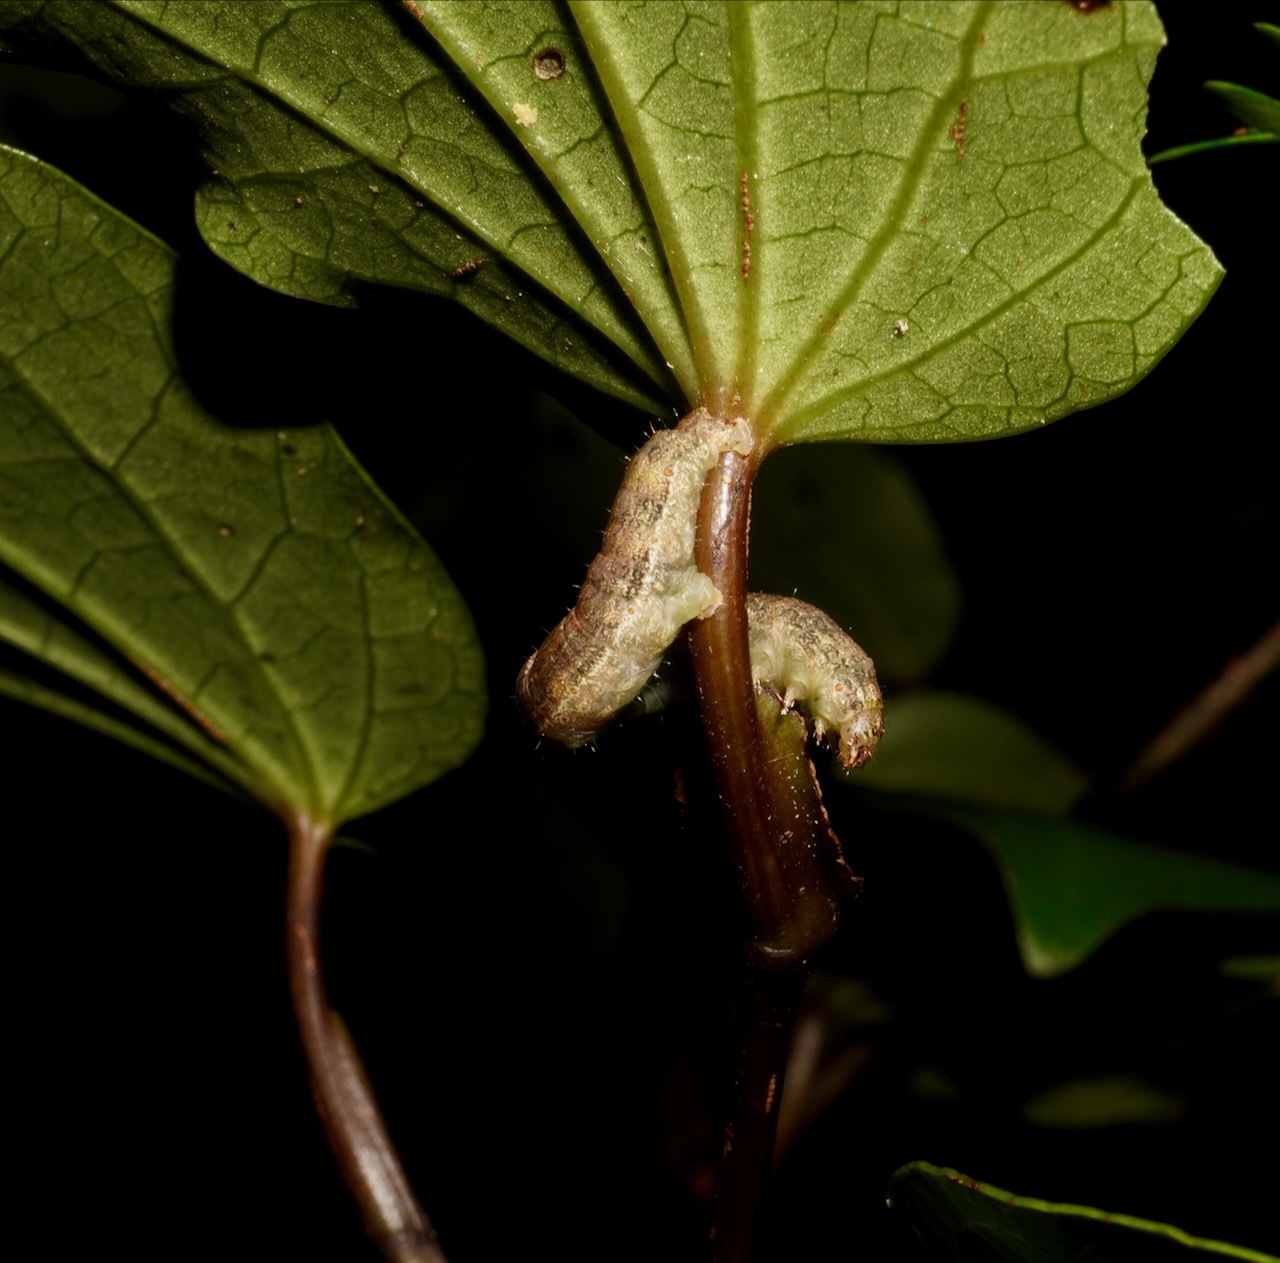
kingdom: Animalia
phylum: Arthropoda
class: Insecta
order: Lepidoptera
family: Geometridae
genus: Cleora
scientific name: Cleora scriptaria
